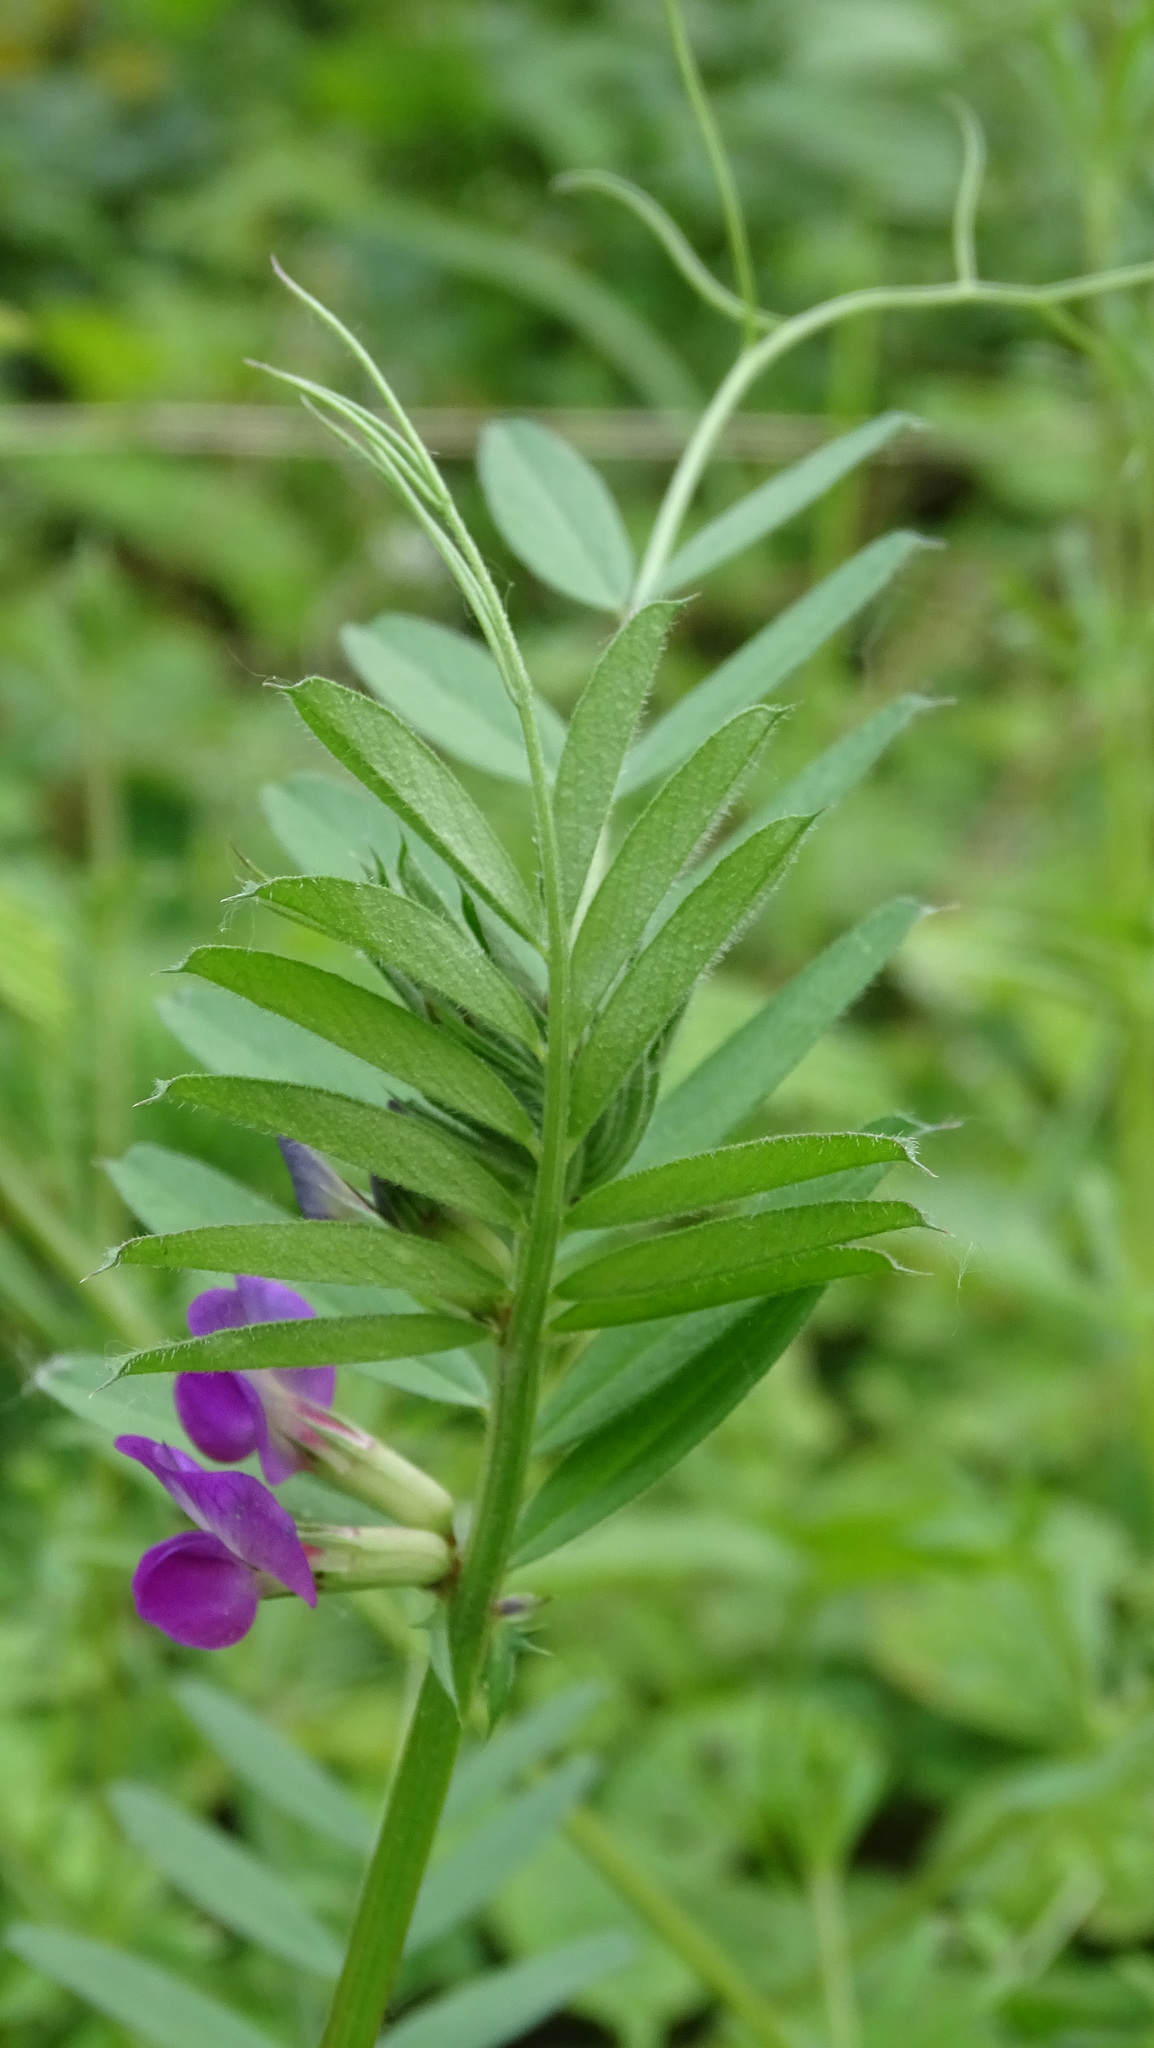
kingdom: Plantae
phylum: Tracheophyta
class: Magnoliopsida
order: Fabales
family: Fabaceae
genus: Vicia
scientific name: Vicia sativa
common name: Garden vetch
